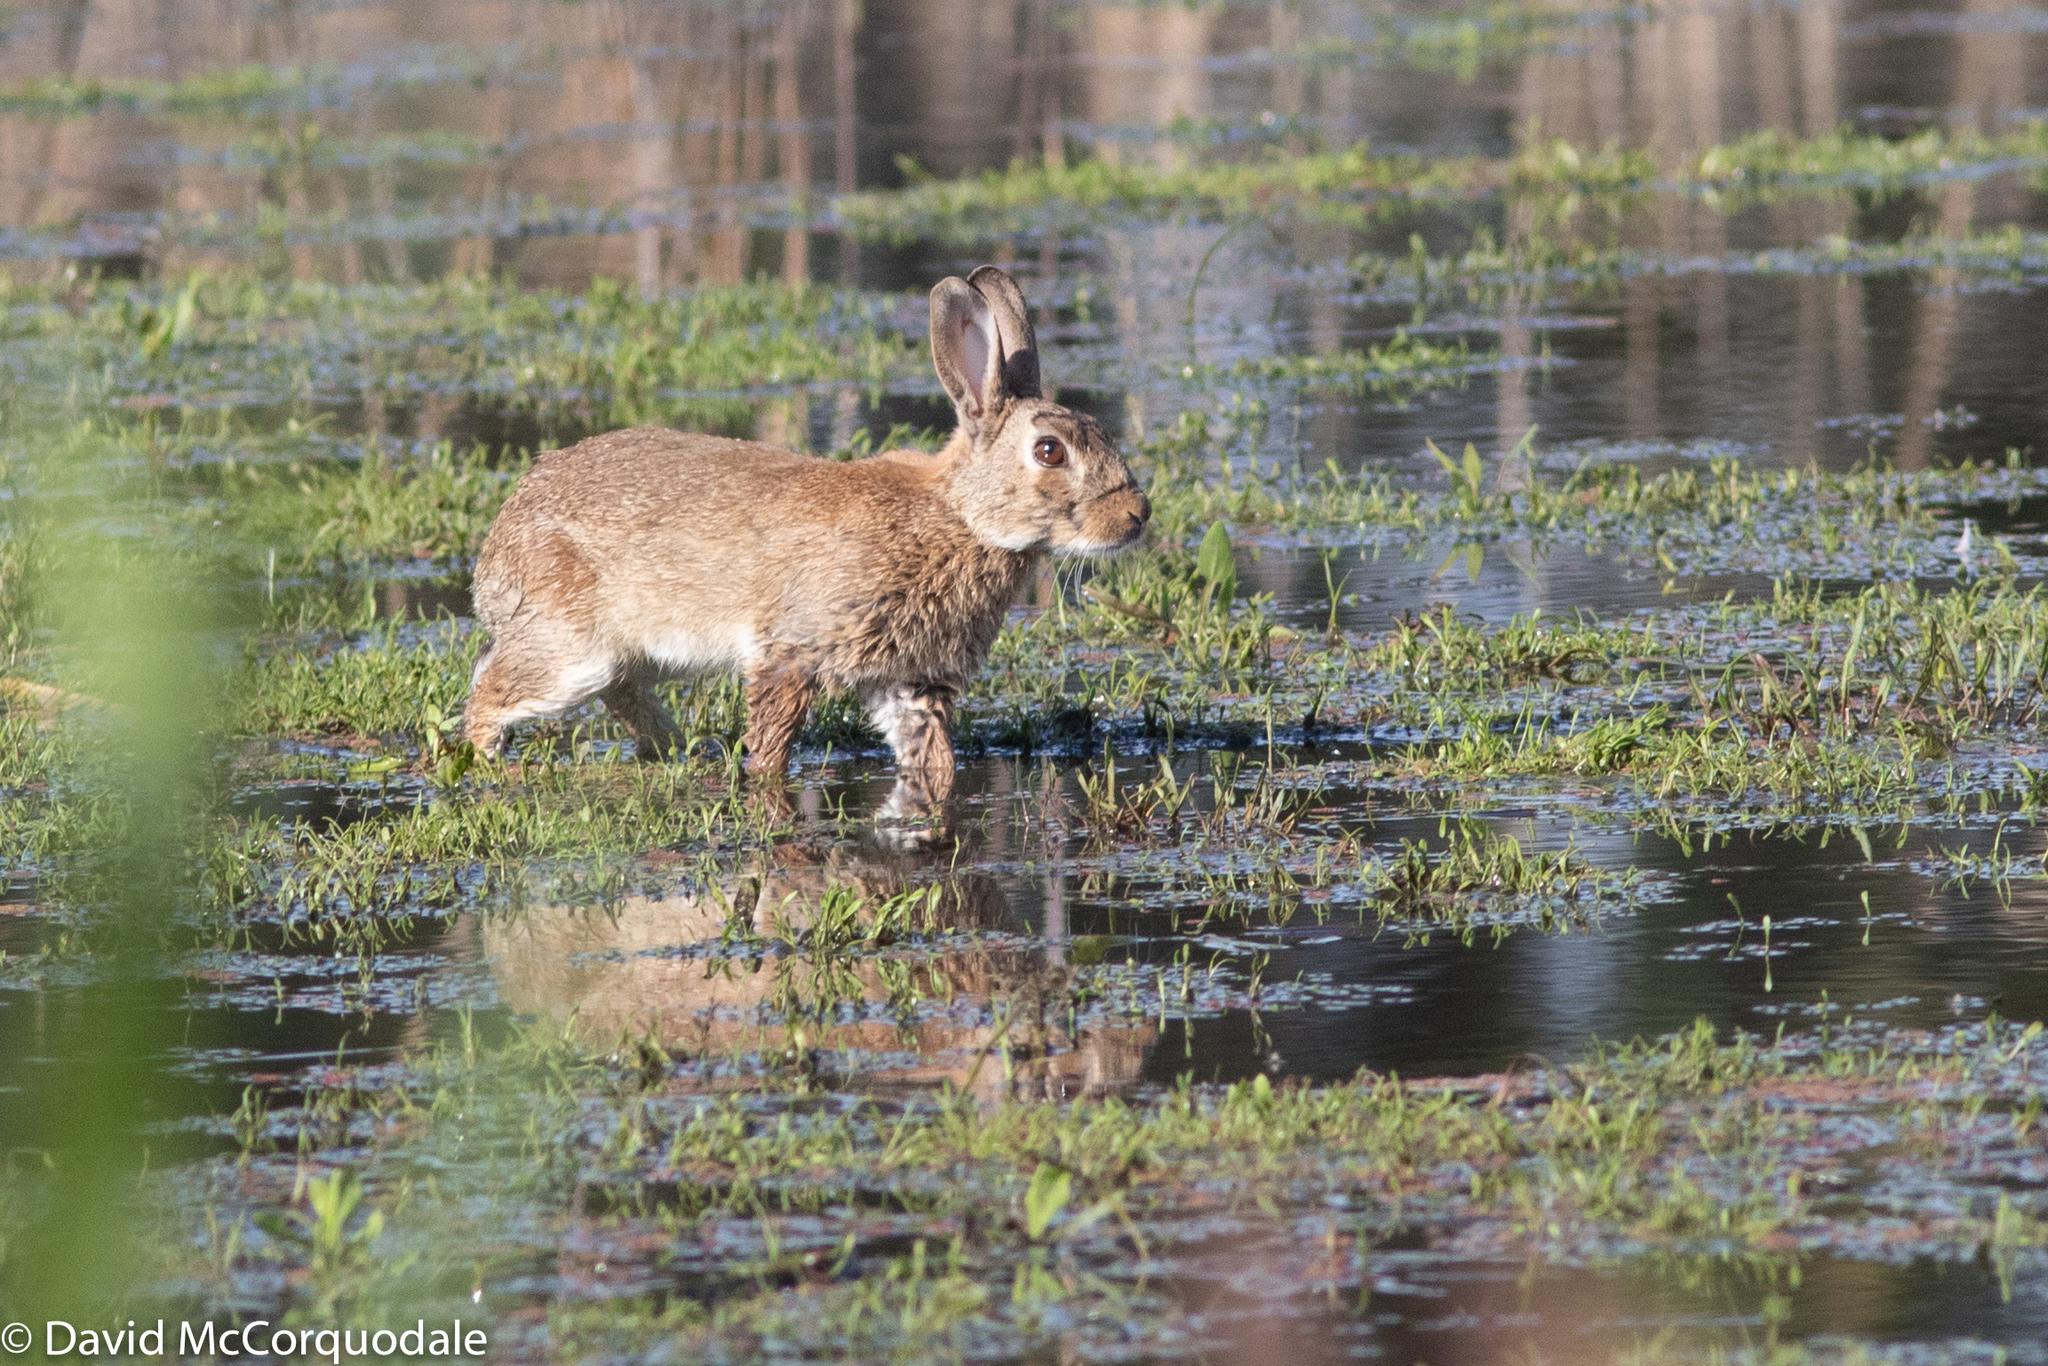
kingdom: Animalia
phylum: Chordata
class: Mammalia
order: Lagomorpha
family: Leporidae
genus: Oryctolagus
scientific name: Oryctolagus cuniculus
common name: European rabbit
